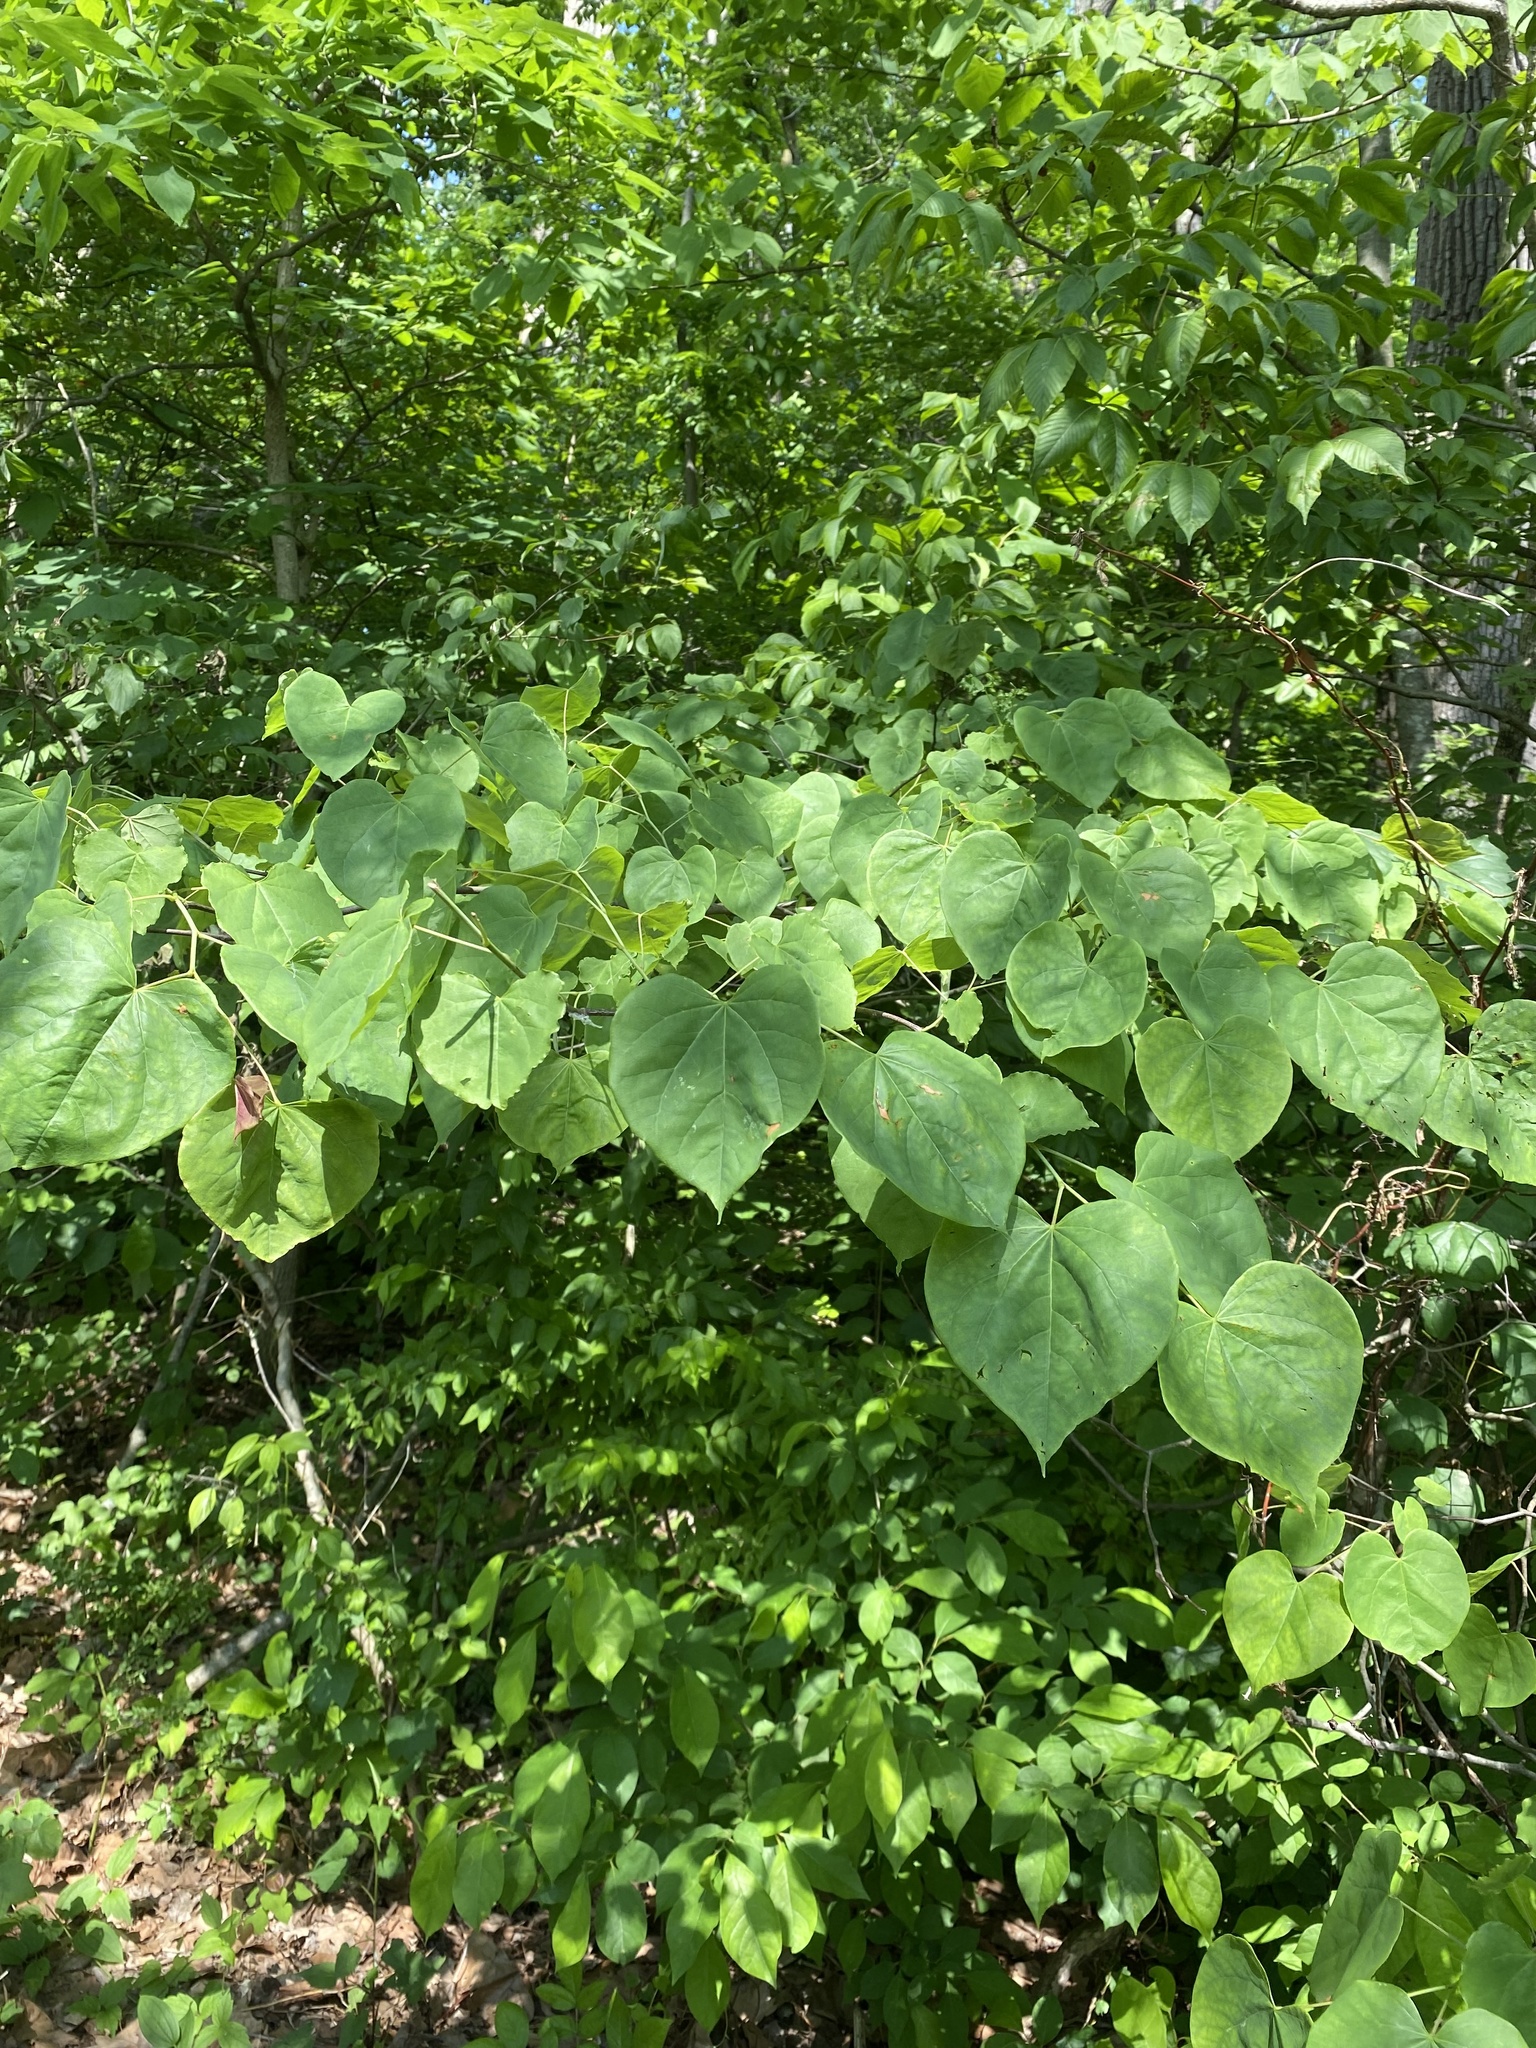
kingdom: Plantae
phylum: Tracheophyta
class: Magnoliopsida
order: Fabales
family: Fabaceae
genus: Cercis
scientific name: Cercis canadensis
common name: Eastern redbud
